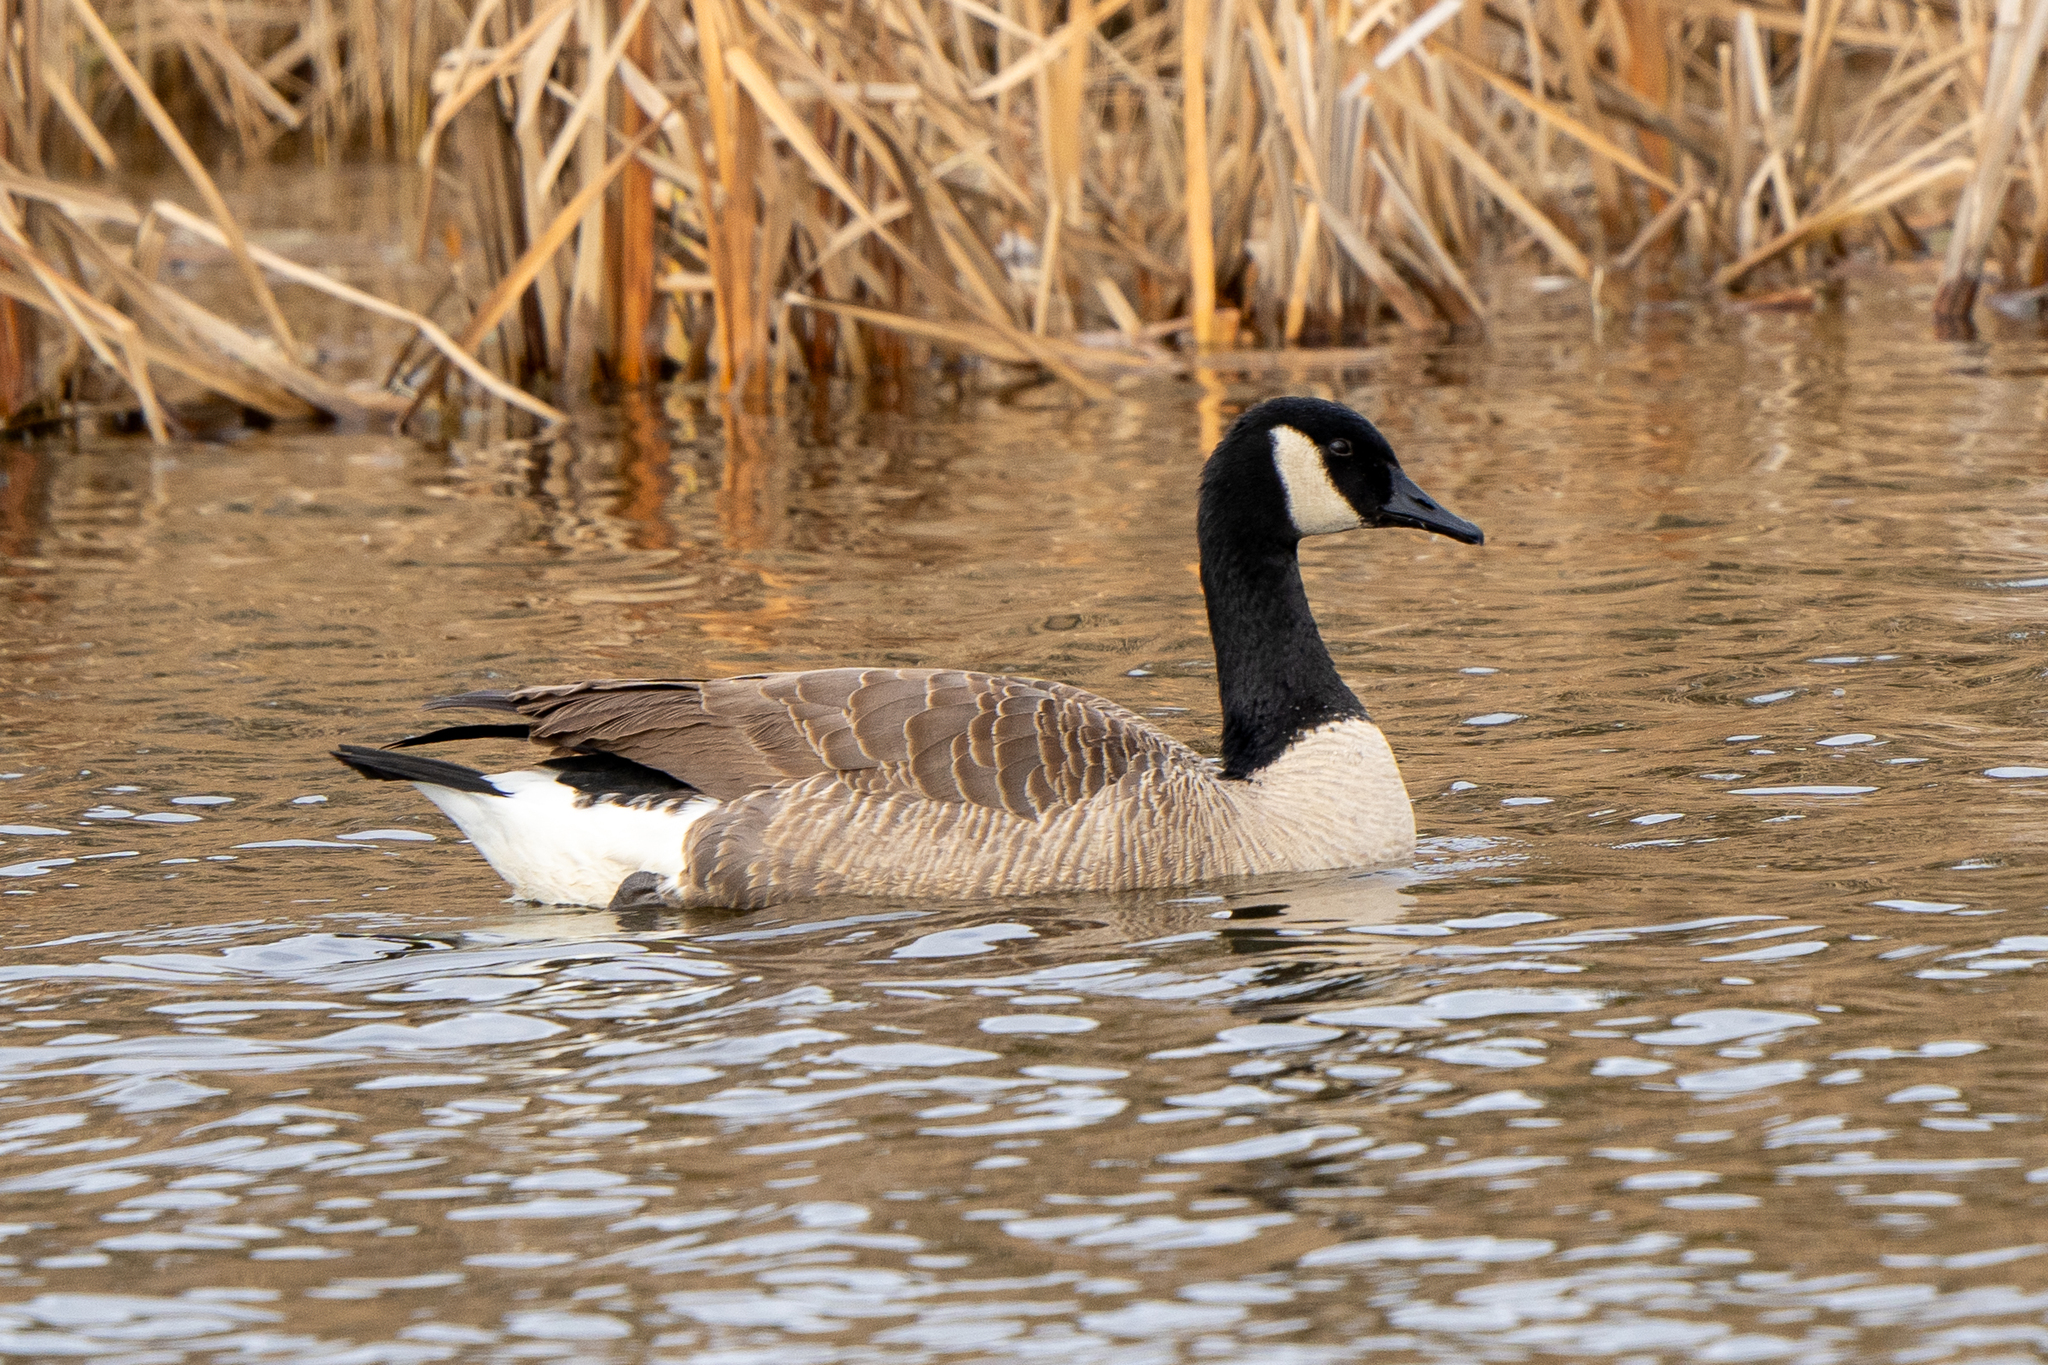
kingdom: Animalia
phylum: Chordata
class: Aves
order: Anseriformes
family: Anatidae
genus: Branta
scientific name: Branta canadensis
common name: Canada goose
